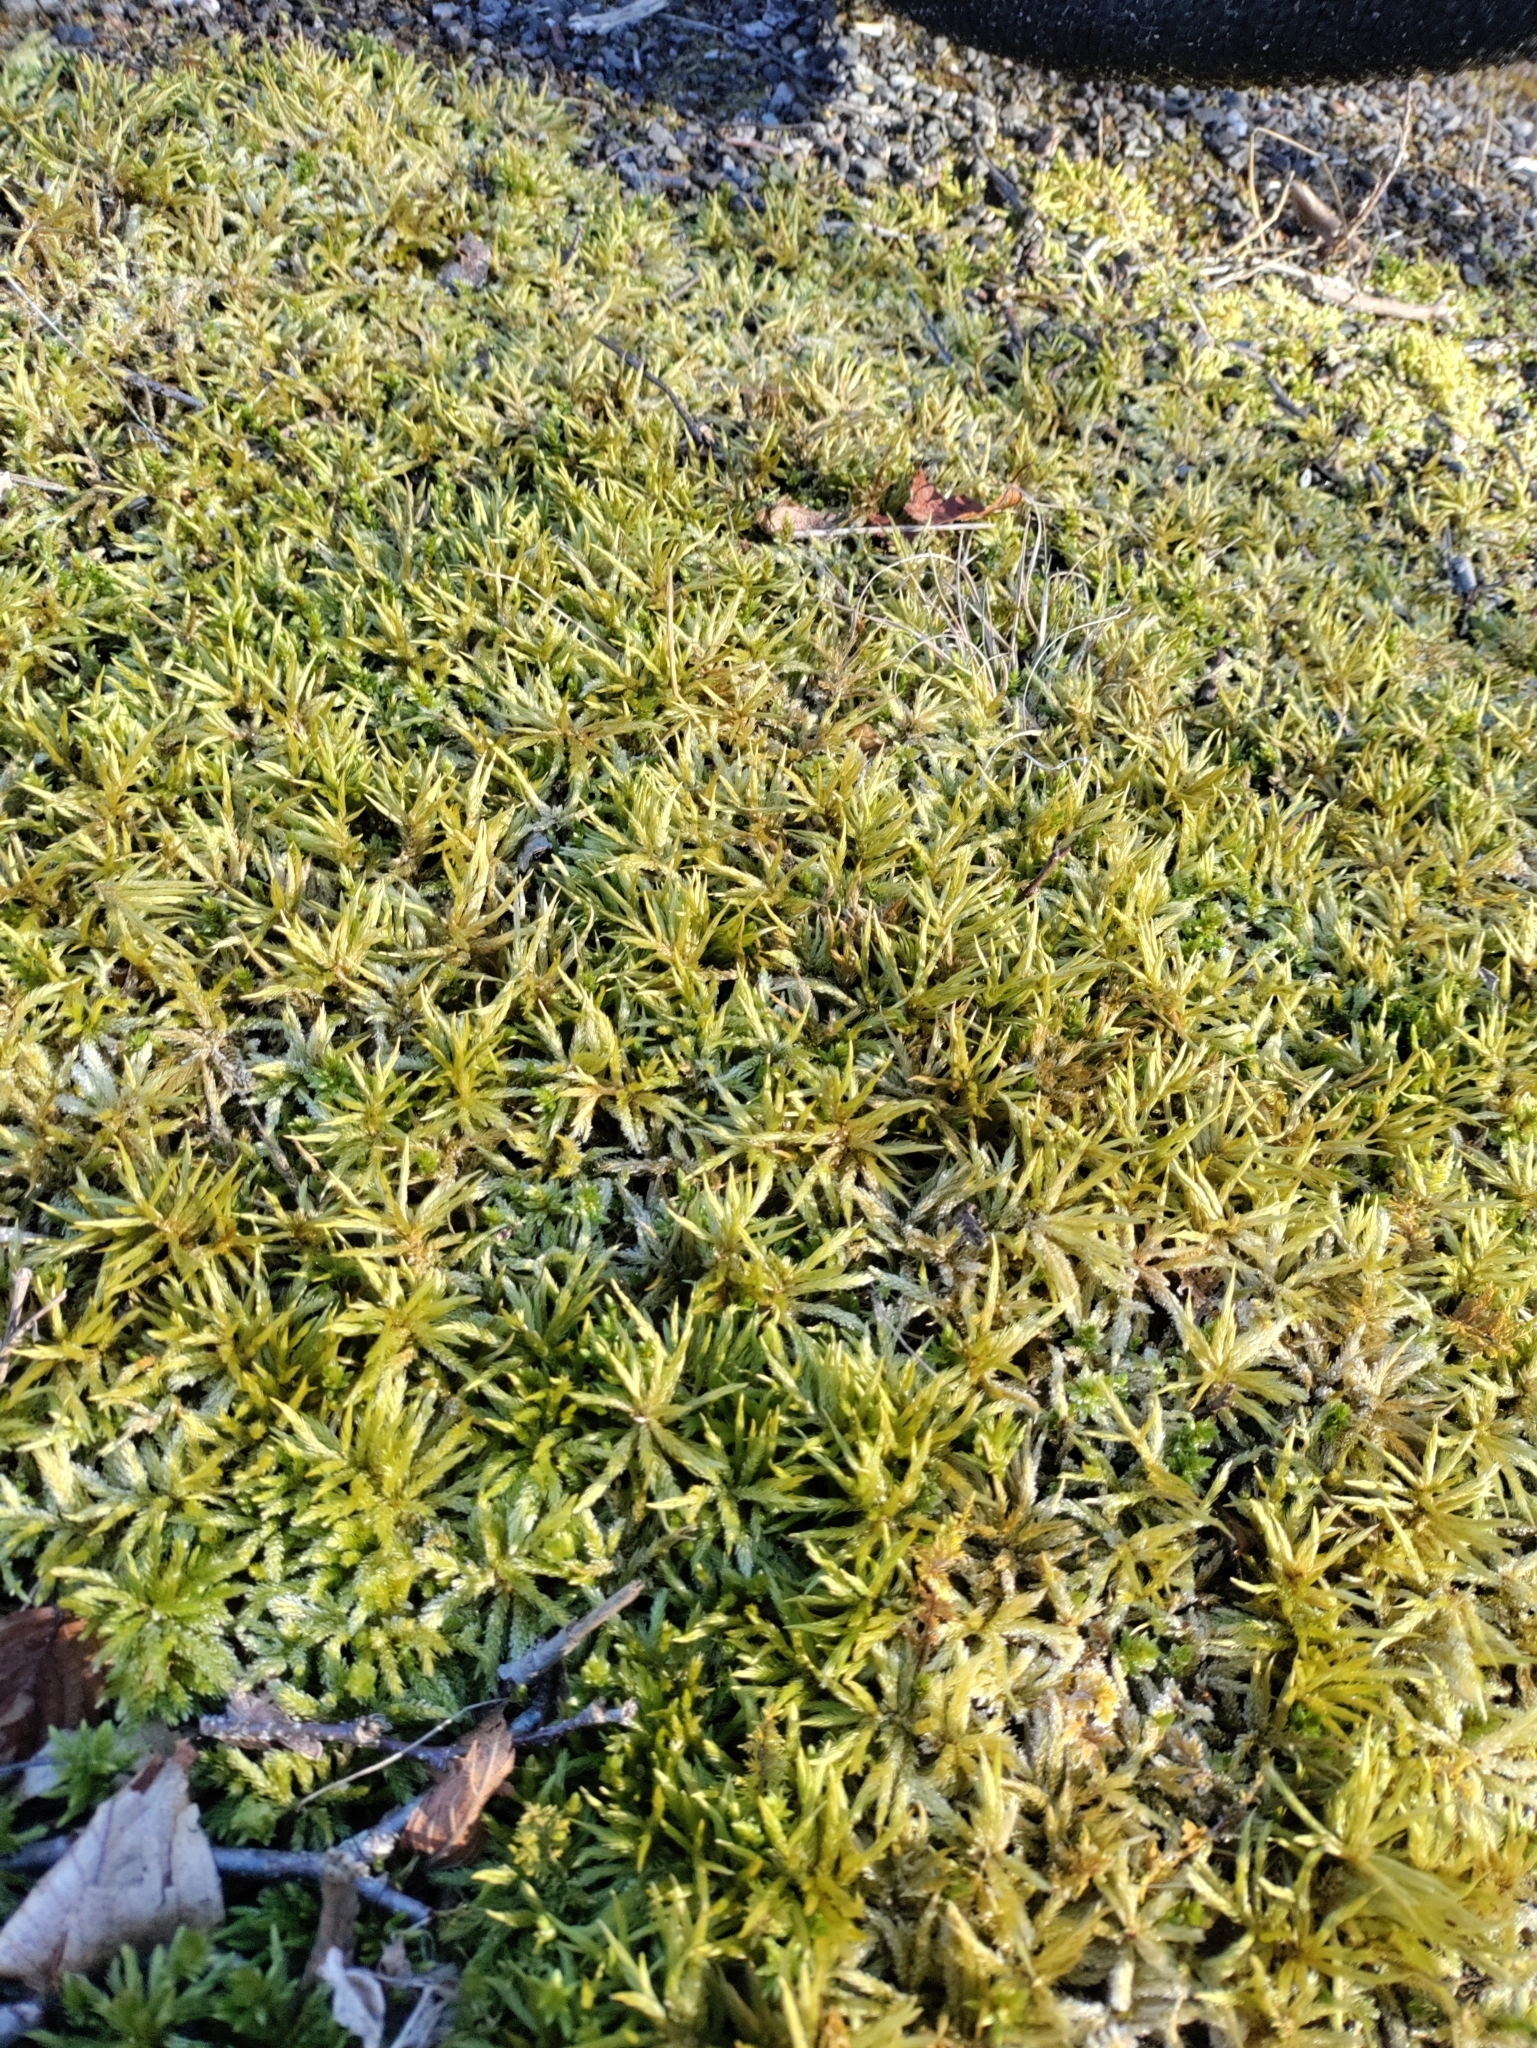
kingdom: Plantae
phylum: Bryophyta
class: Bryopsida
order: Hypnales
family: Climaciaceae
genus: Climacium
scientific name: Climacium americanum
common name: American tree moss
